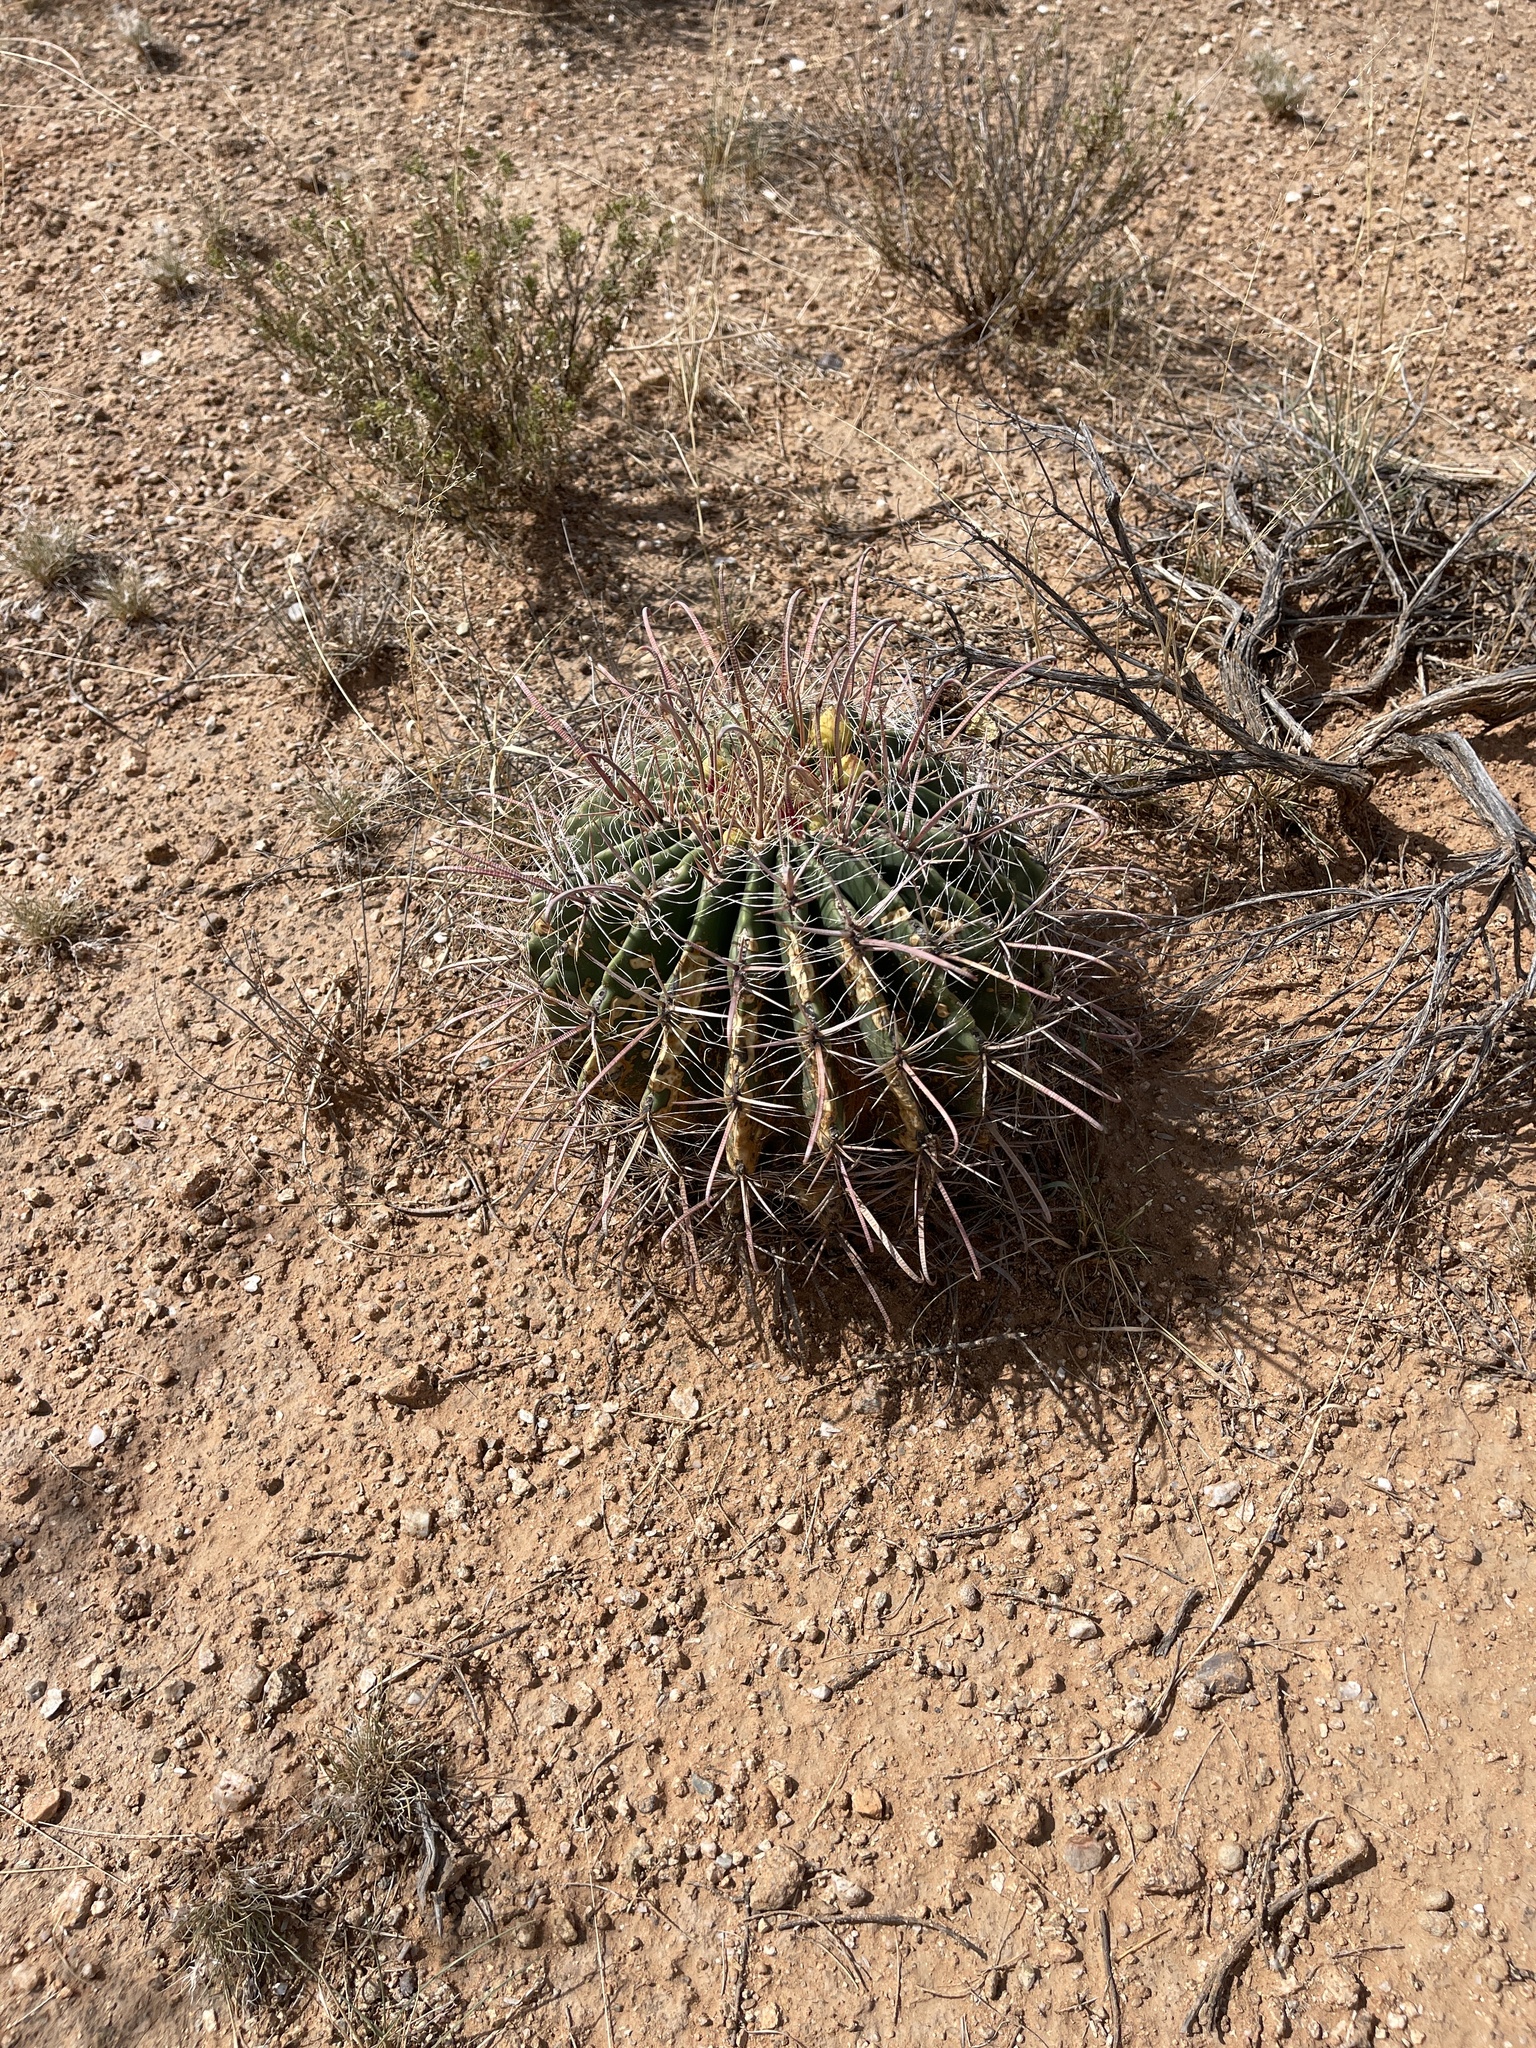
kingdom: Plantae
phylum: Tracheophyta
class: Magnoliopsida
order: Caryophyllales
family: Cactaceae
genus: Ferocactus
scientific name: Ferocactus wislizeni
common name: Candy barrel cactus
